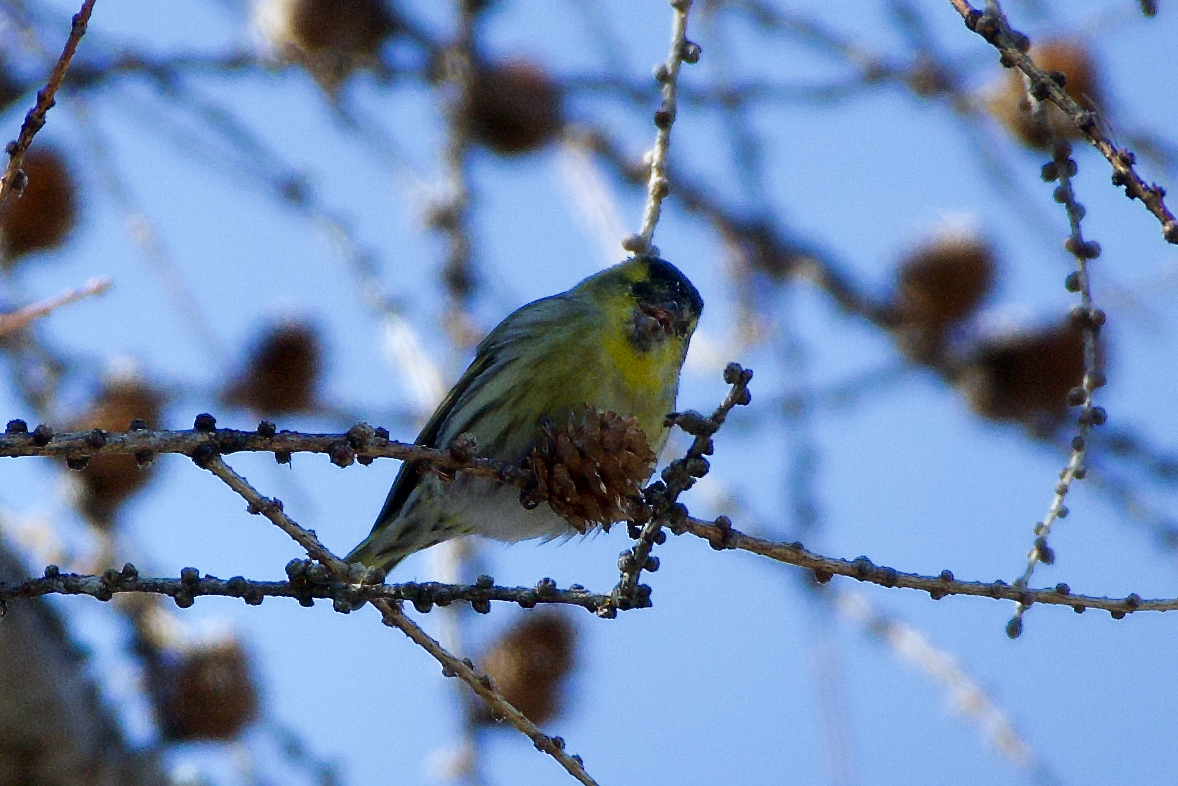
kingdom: Animalia
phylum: Chordata
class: Aves
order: Passeriformes
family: Fringillidae
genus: Spinus
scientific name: Spinus spinus
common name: Eurasian siskin
